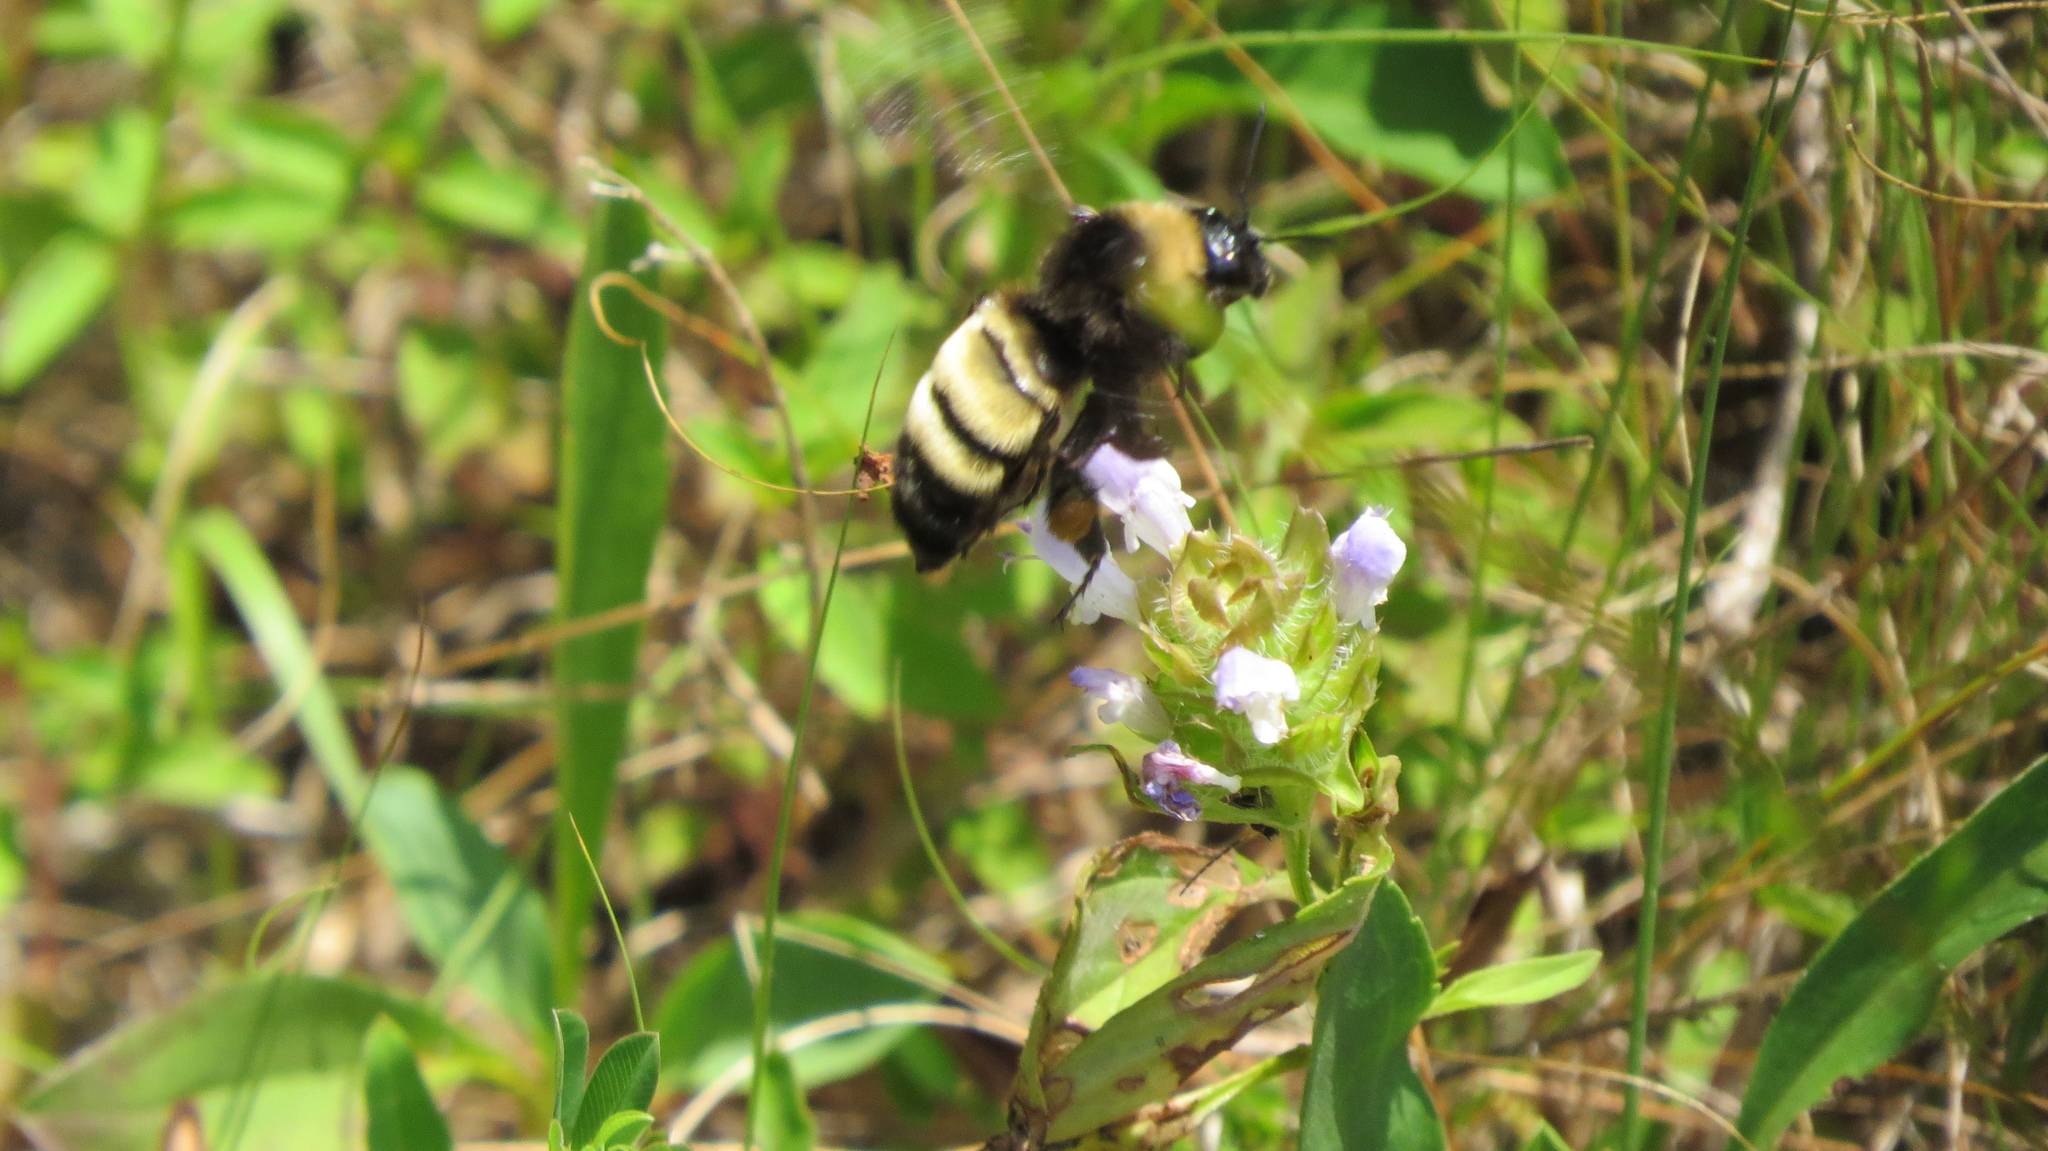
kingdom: Animalia
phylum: Arthropoda
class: Insecta
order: Hymenoptera
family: Apidae
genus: Bombus
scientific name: Bombus pensylvanicus
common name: Bumble bee
